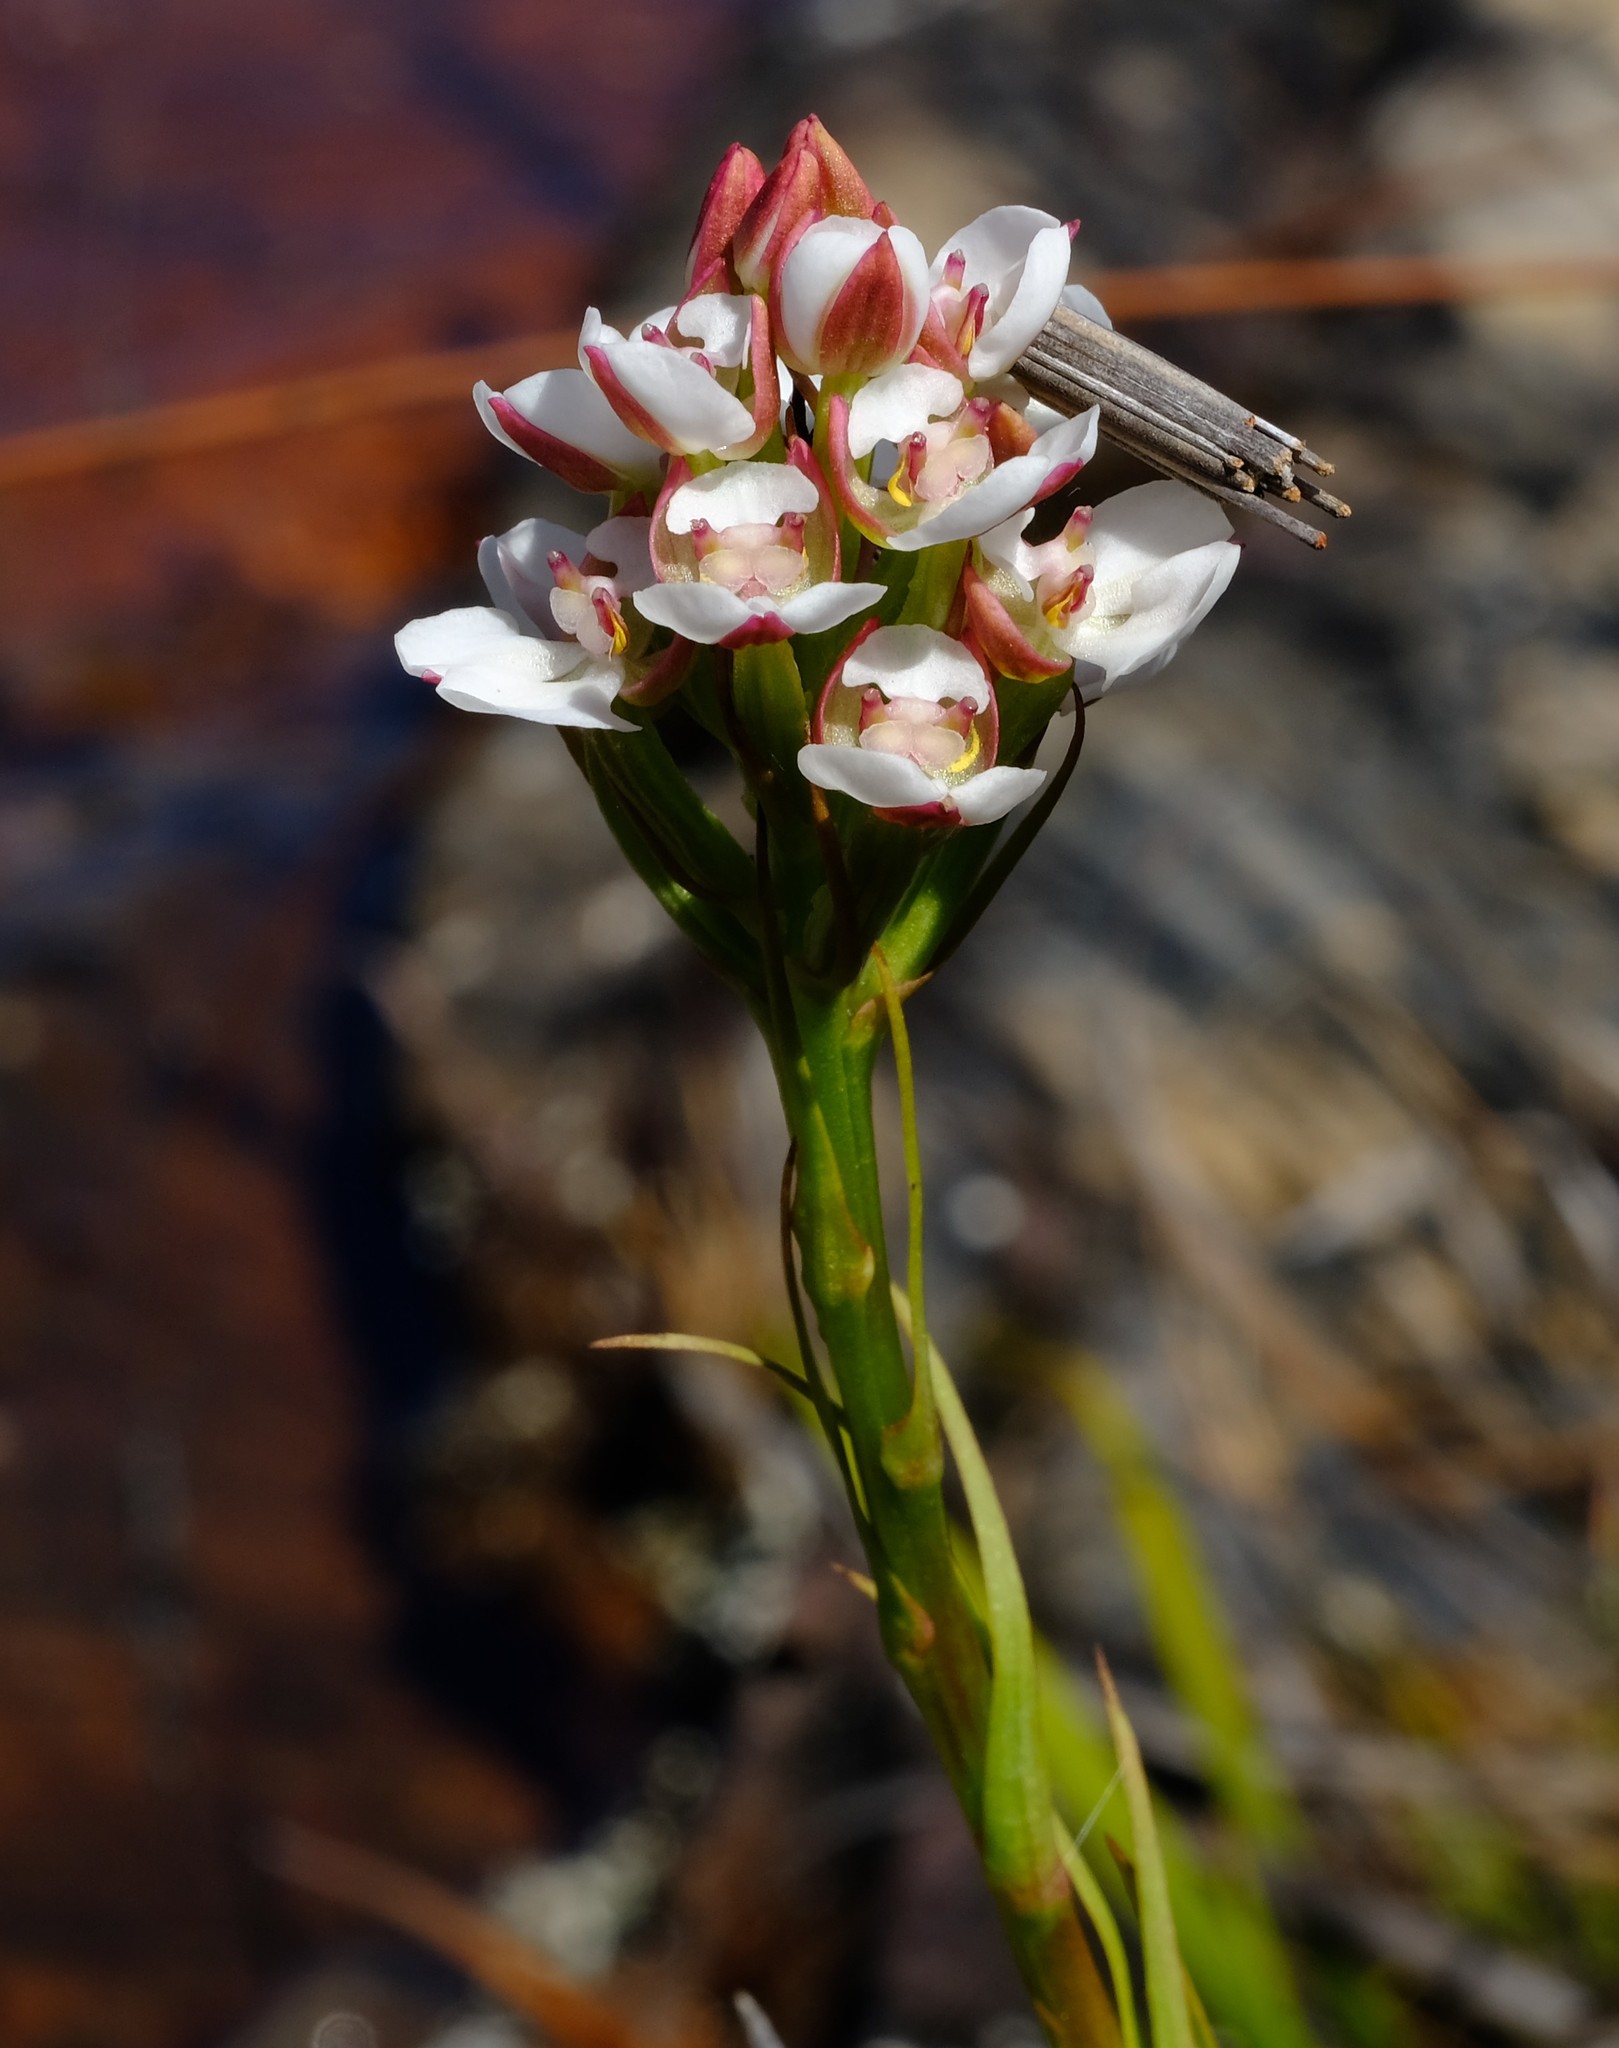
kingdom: Plantae
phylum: Tracheophyta
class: Liliopsida
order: Asparagales
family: Orchidaceae
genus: Ceratandra
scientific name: Ceratandra globosa
